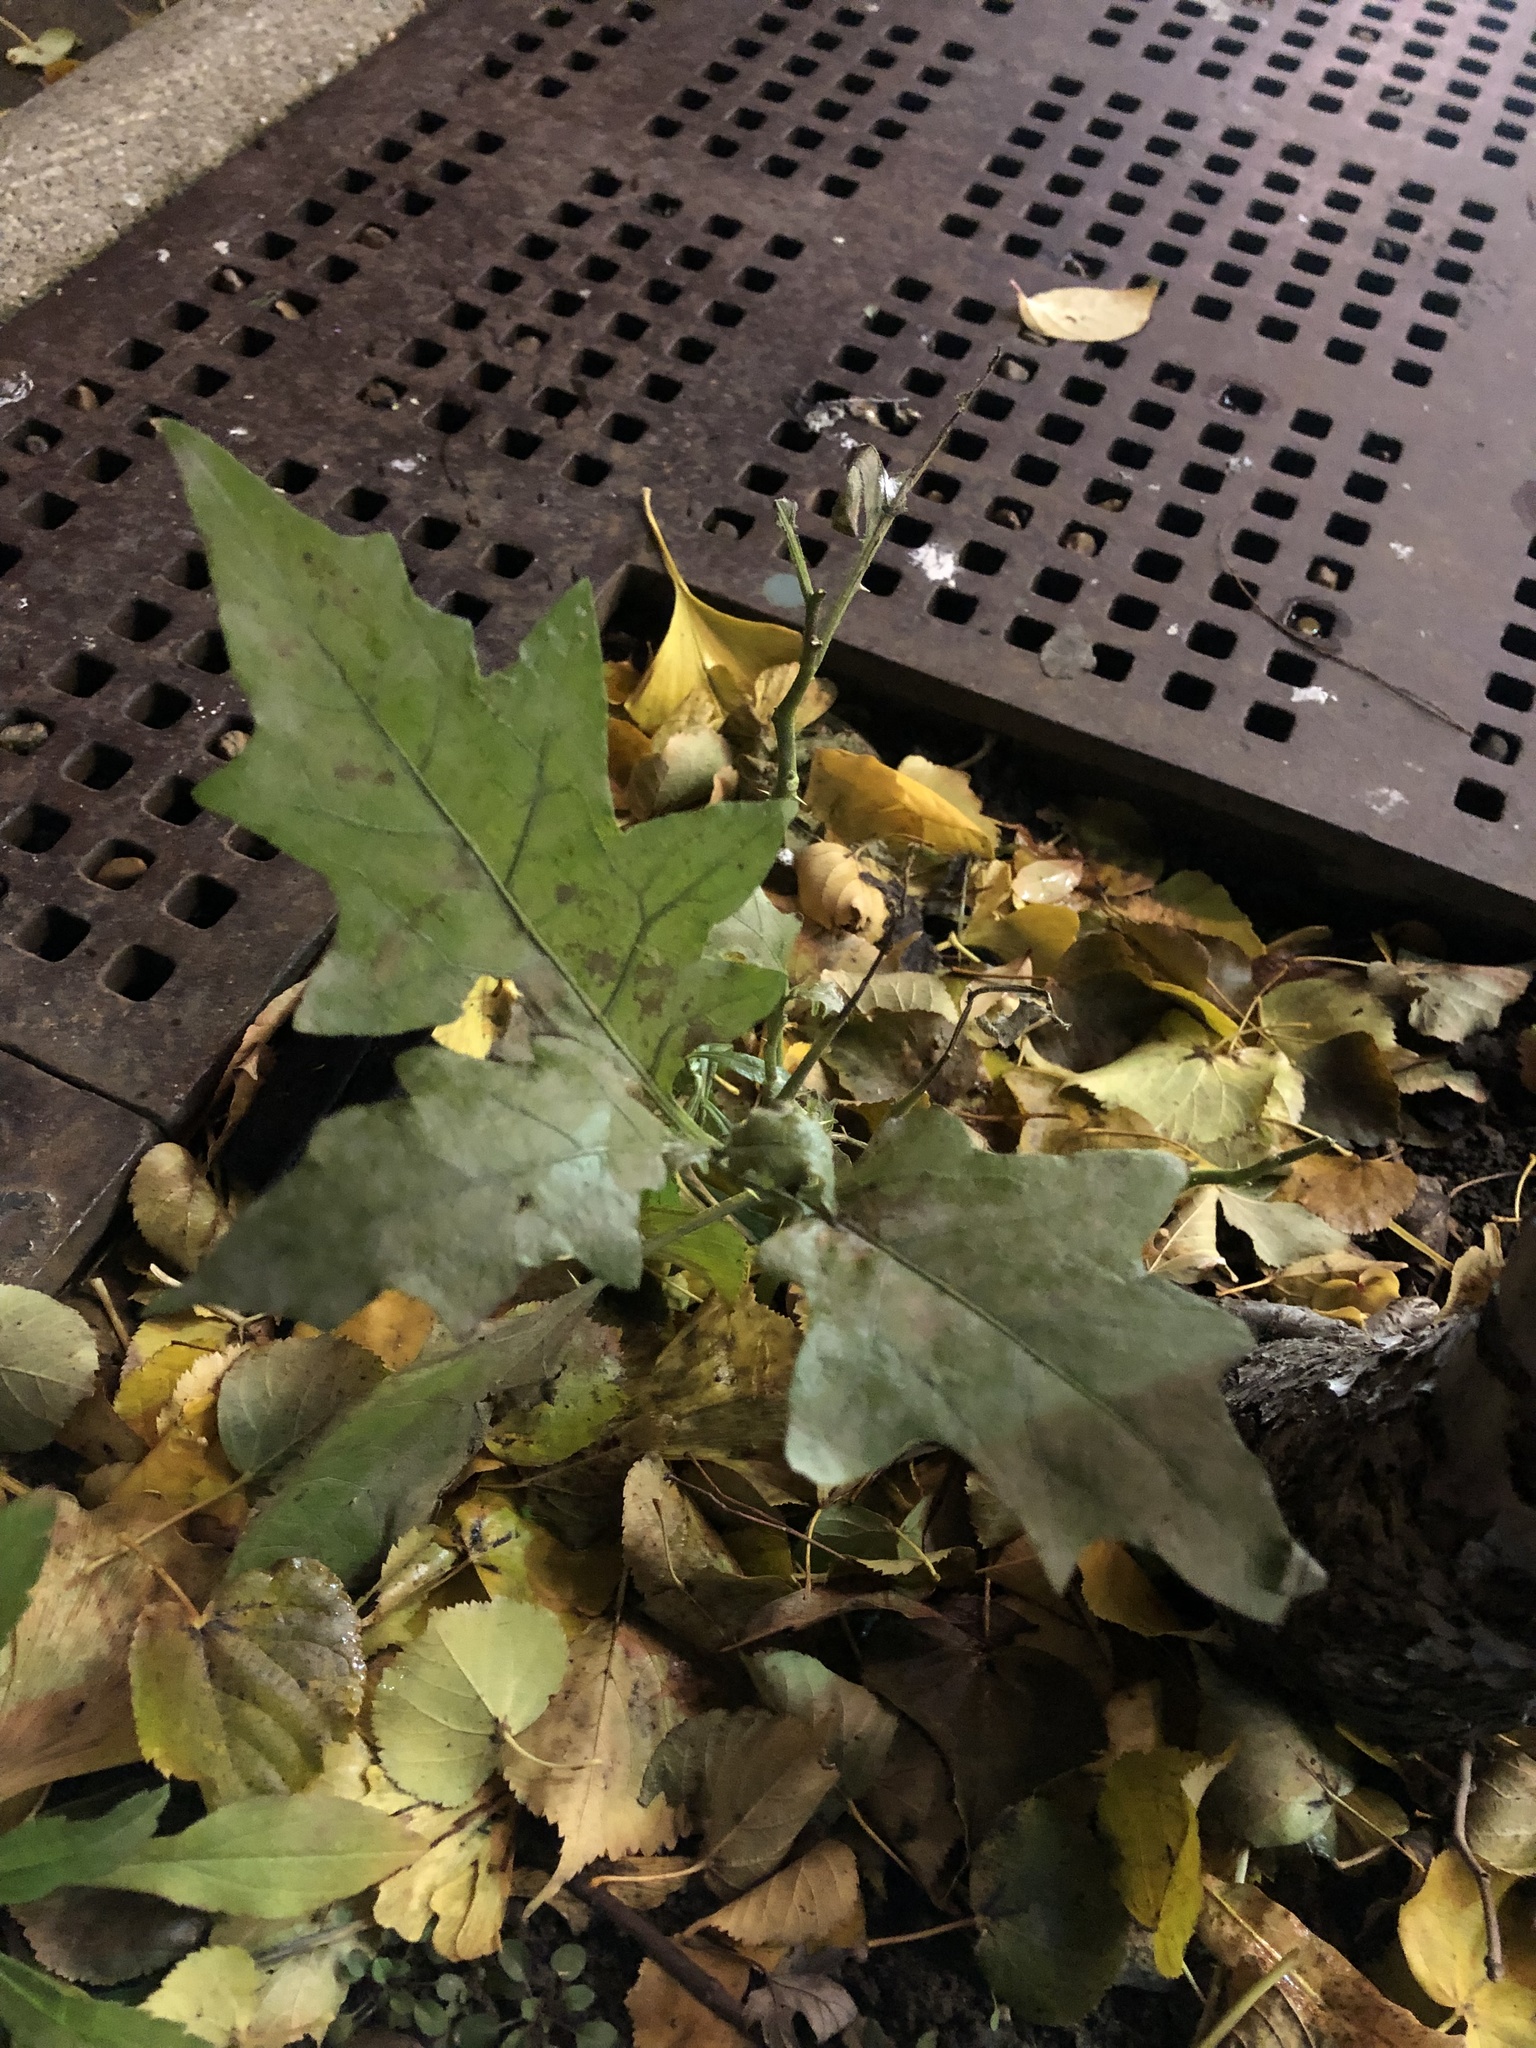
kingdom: Plantae
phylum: Tracheophyta
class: Magnoliopsida
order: Solanales
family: Solanaceae
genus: Solanum
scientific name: Solanum carolinense
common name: Horse-nettle
